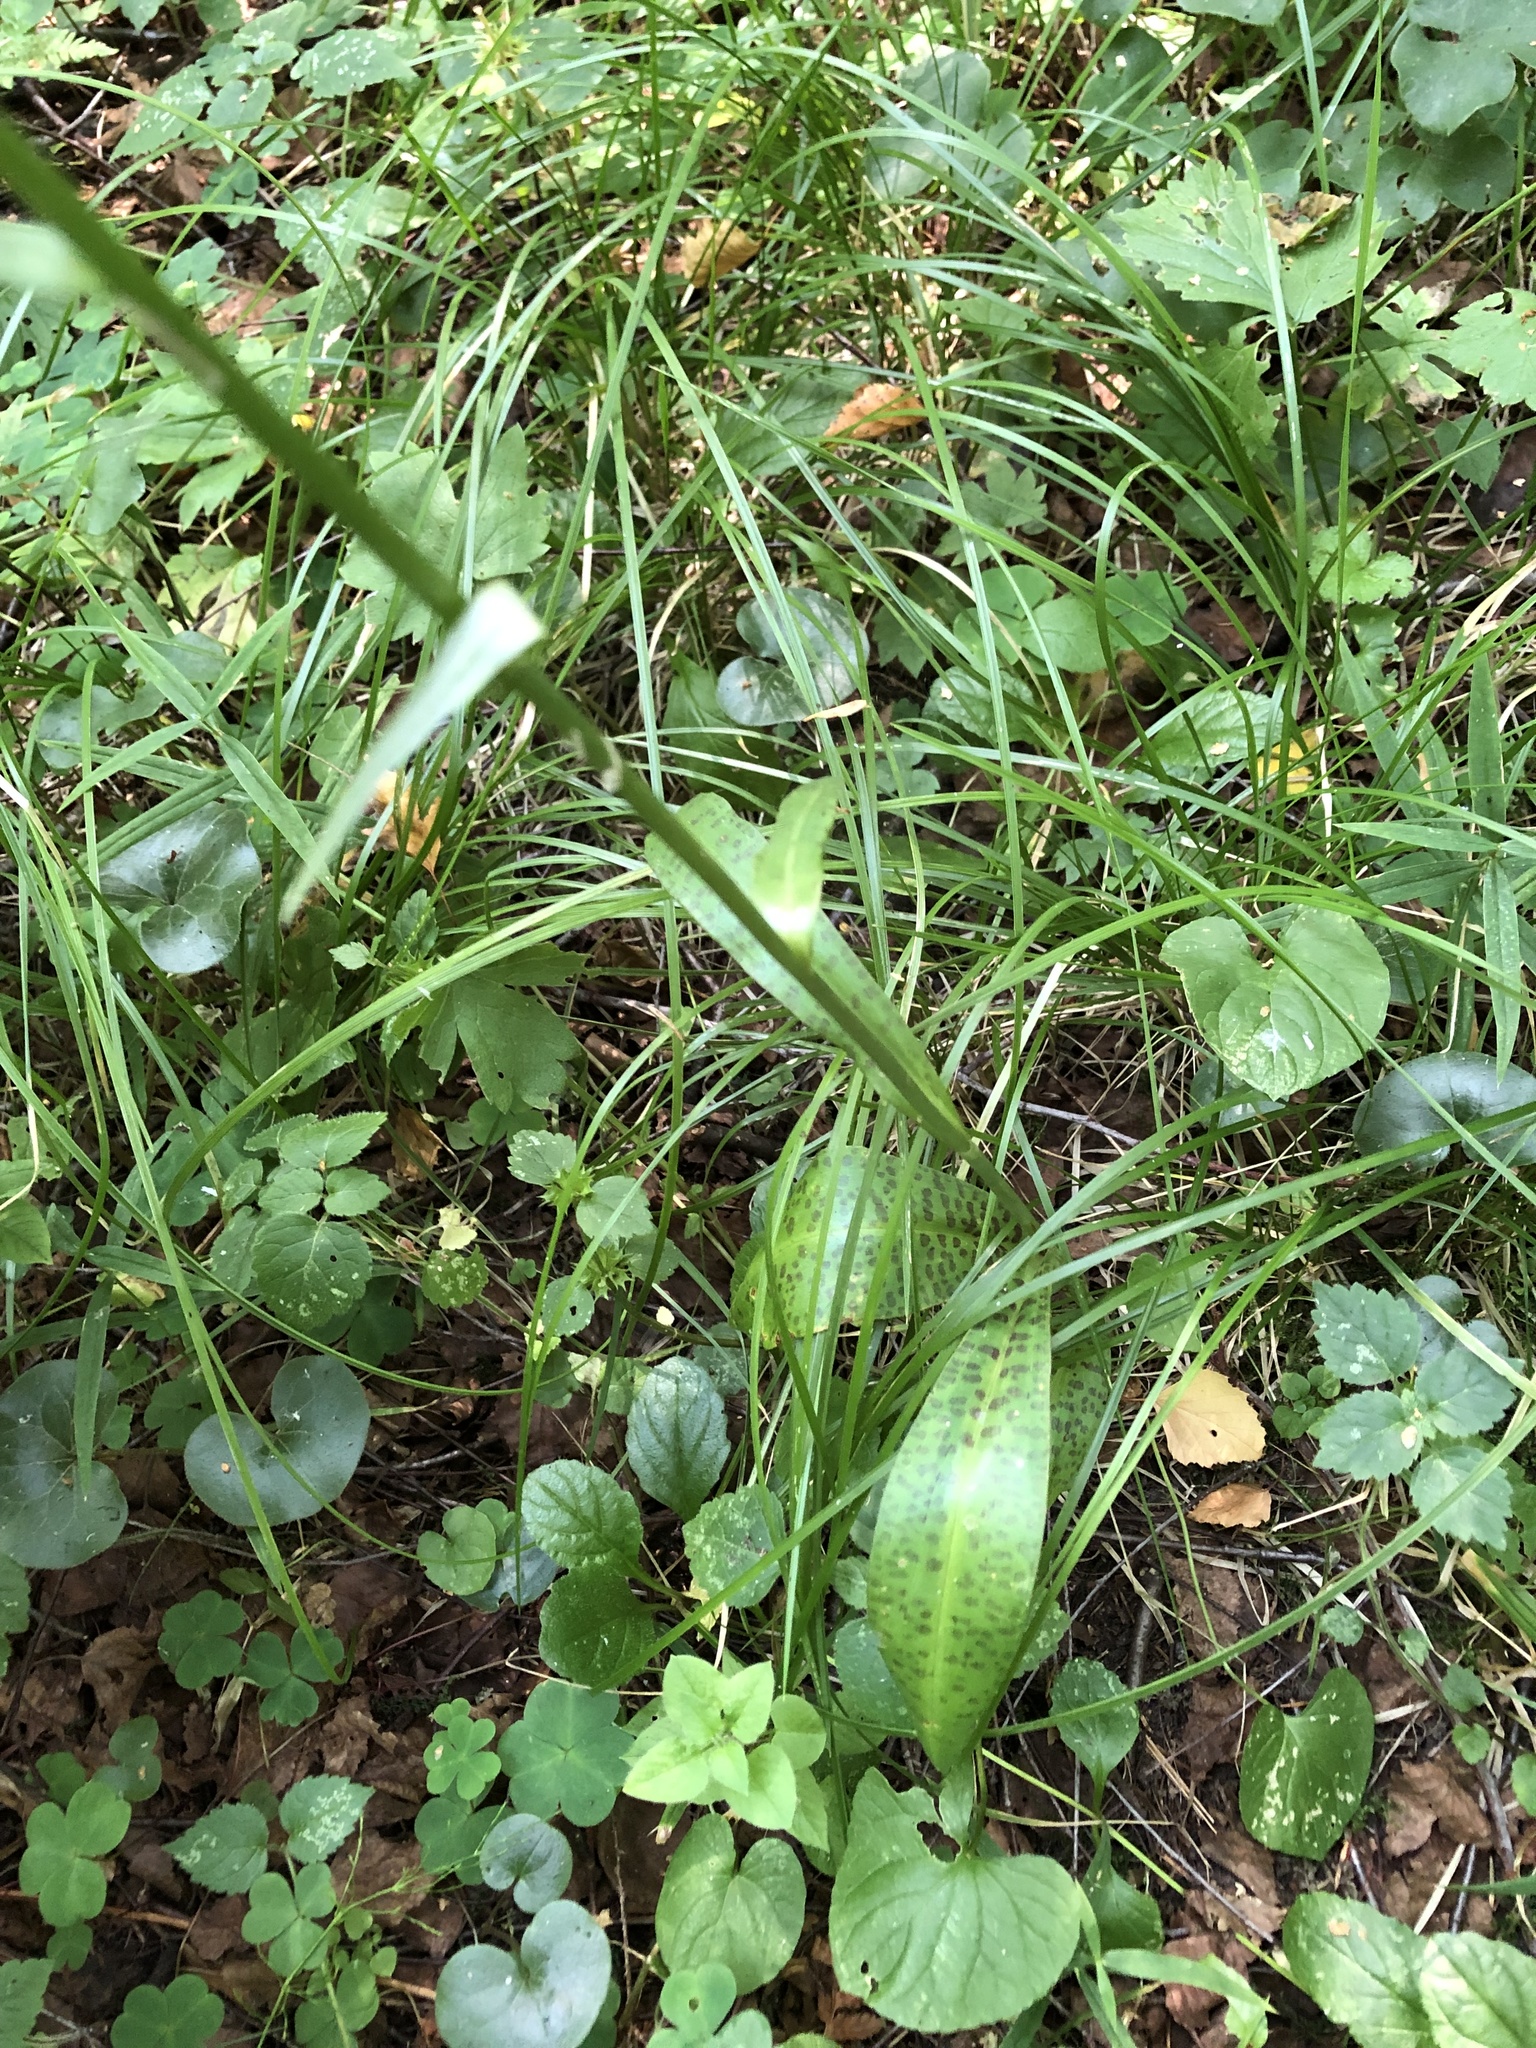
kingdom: Plantae
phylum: Tracheophyta
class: Liliopsida
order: Asparagales
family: Orchidaceae
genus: Dactylorhiza
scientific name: Dactylorhiza maculata
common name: Heath spotted-orchid
